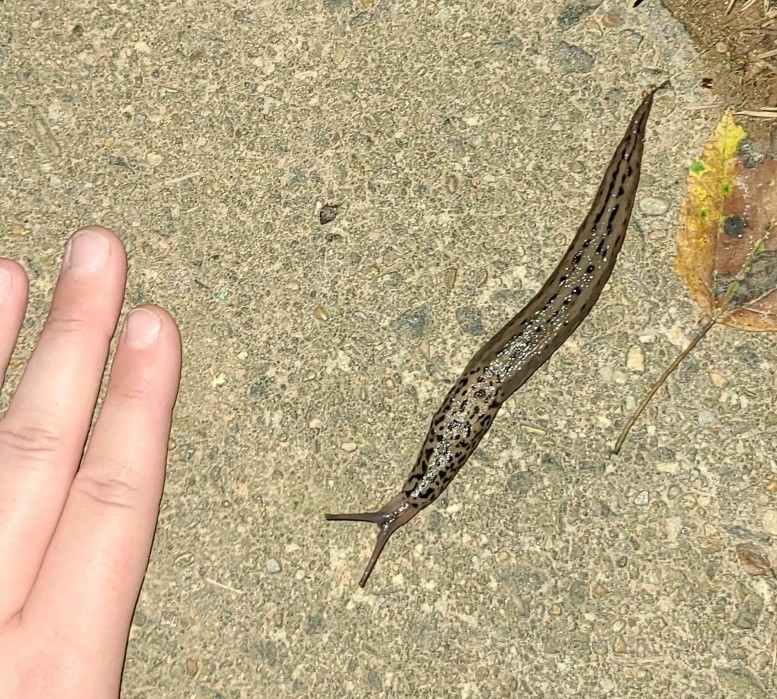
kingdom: Animalia
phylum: Mollusca
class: Gastropoda
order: Stylommatophora
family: Limacidae
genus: Limax
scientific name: Limax maximus
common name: Great grey slug
